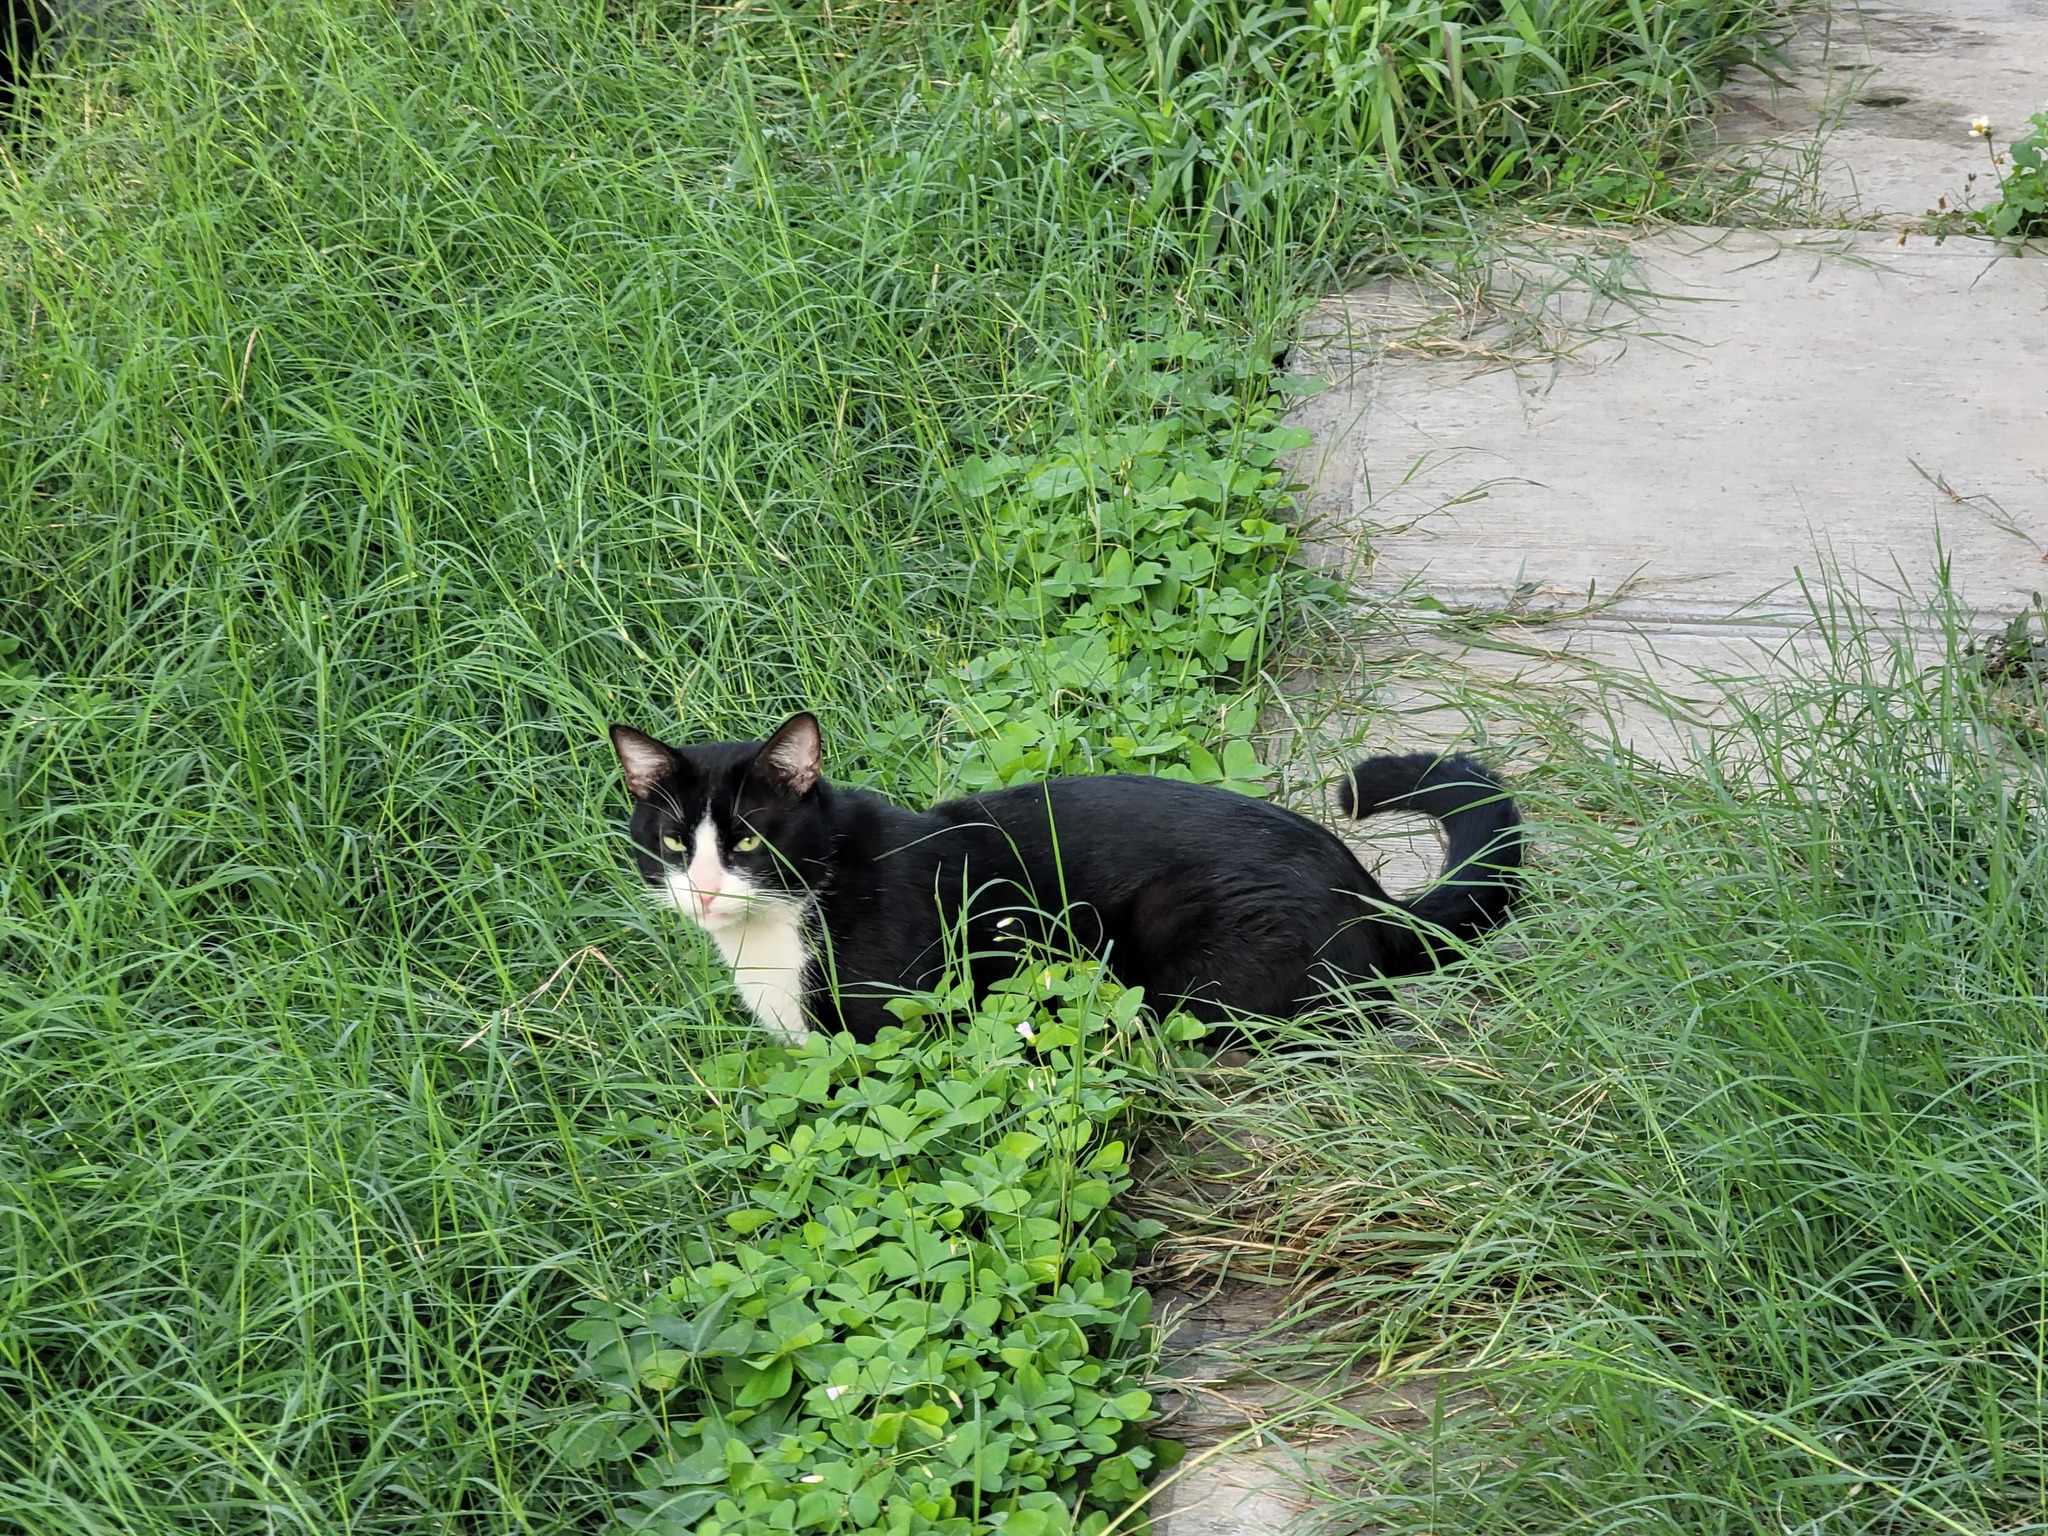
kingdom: Animalia
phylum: Chordata
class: Mammalia
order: Carnivora
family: Felidae
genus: Felis
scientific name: Felis catus
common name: Domestic cat
